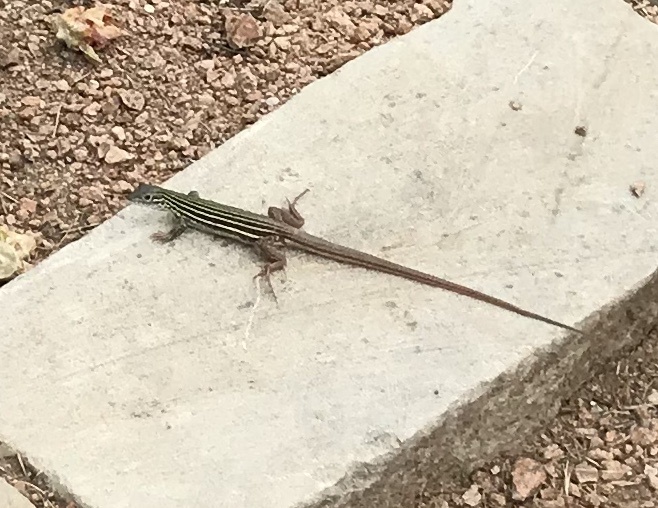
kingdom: Animalia
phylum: Chordata
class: Squamata
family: Teiidae
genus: Aspidoscelis
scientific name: Aspidoscelis gularis
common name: Eastern spotted whiptail
